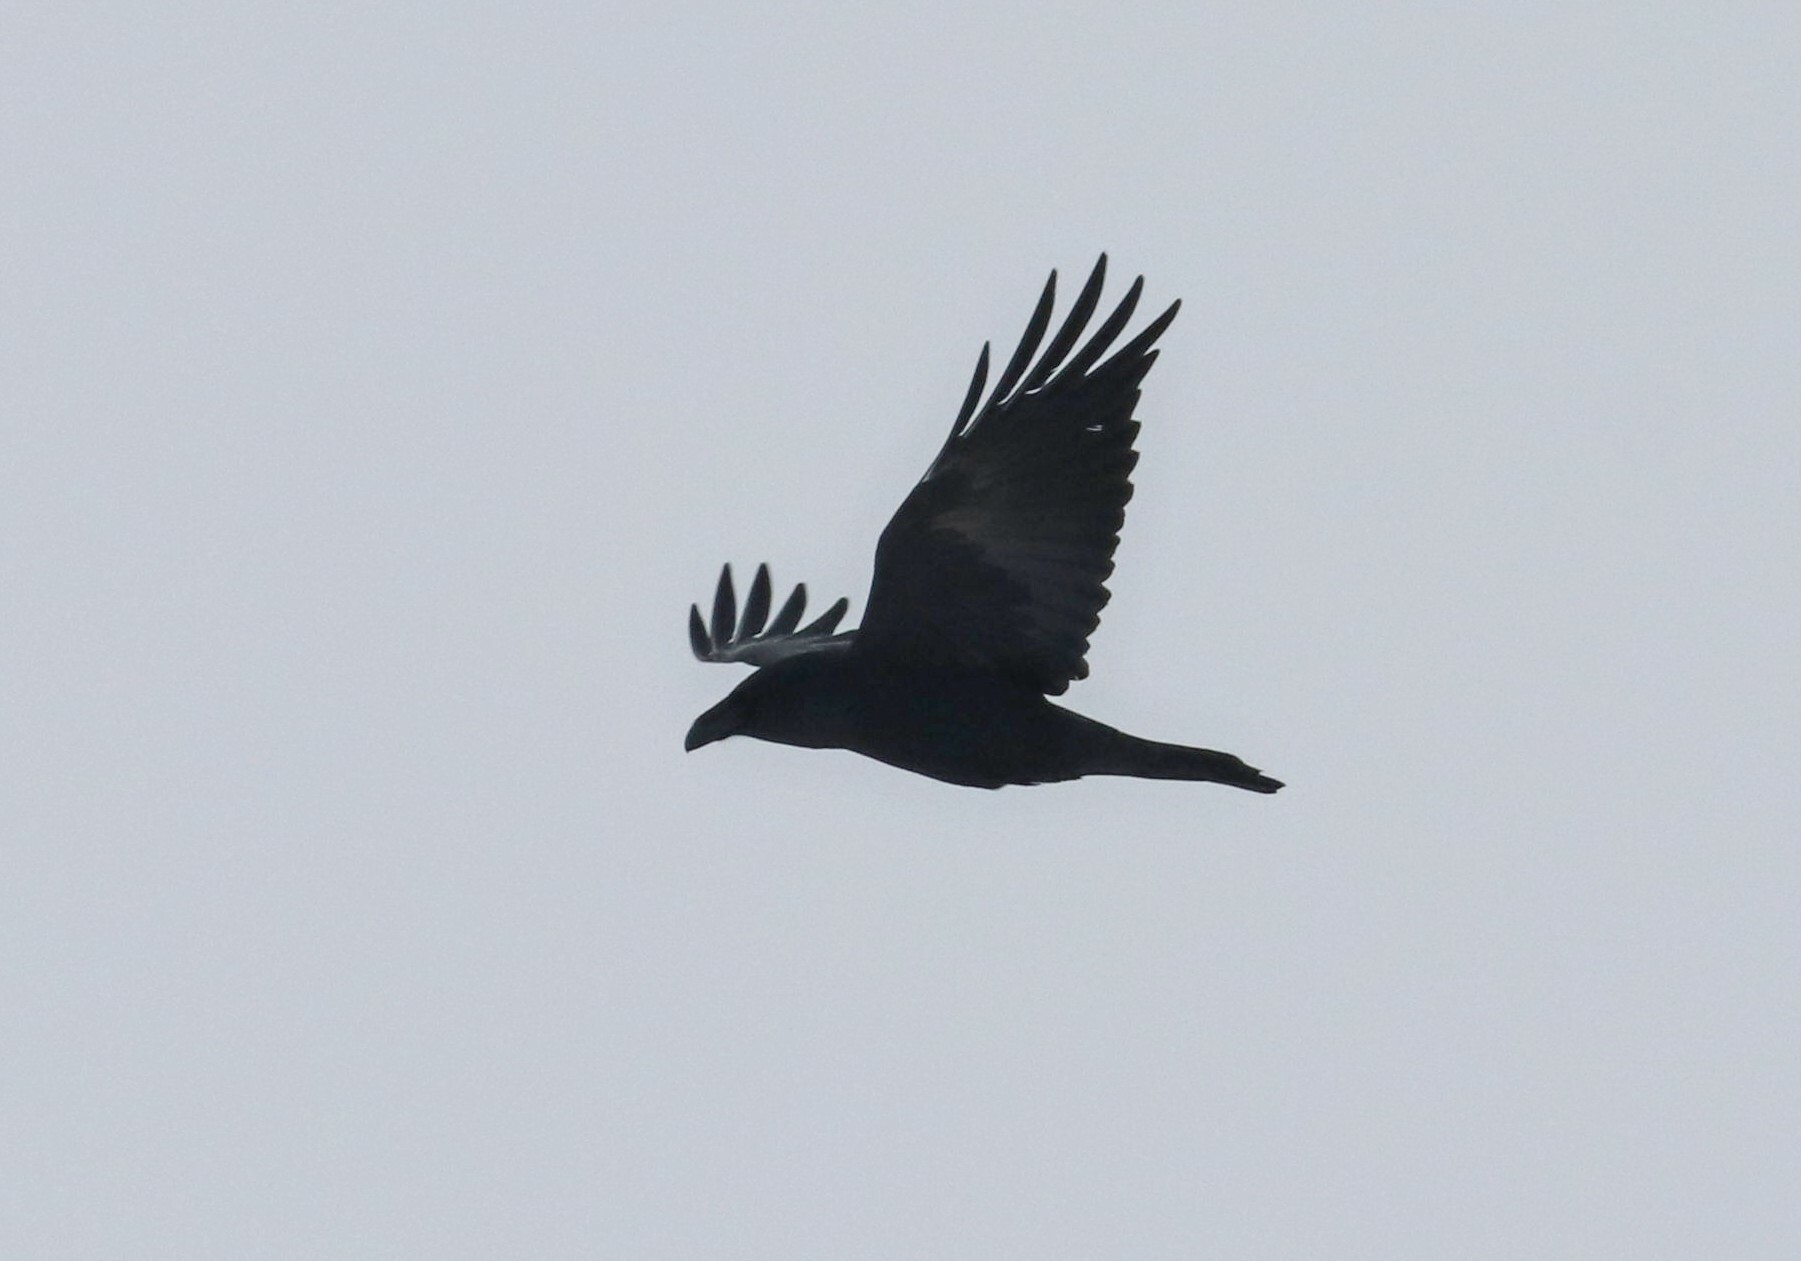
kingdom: Animalia
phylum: Chordata
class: Aves
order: Passeriformes
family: Corvidae
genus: Corvus
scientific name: Corvus corax
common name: Common raven
